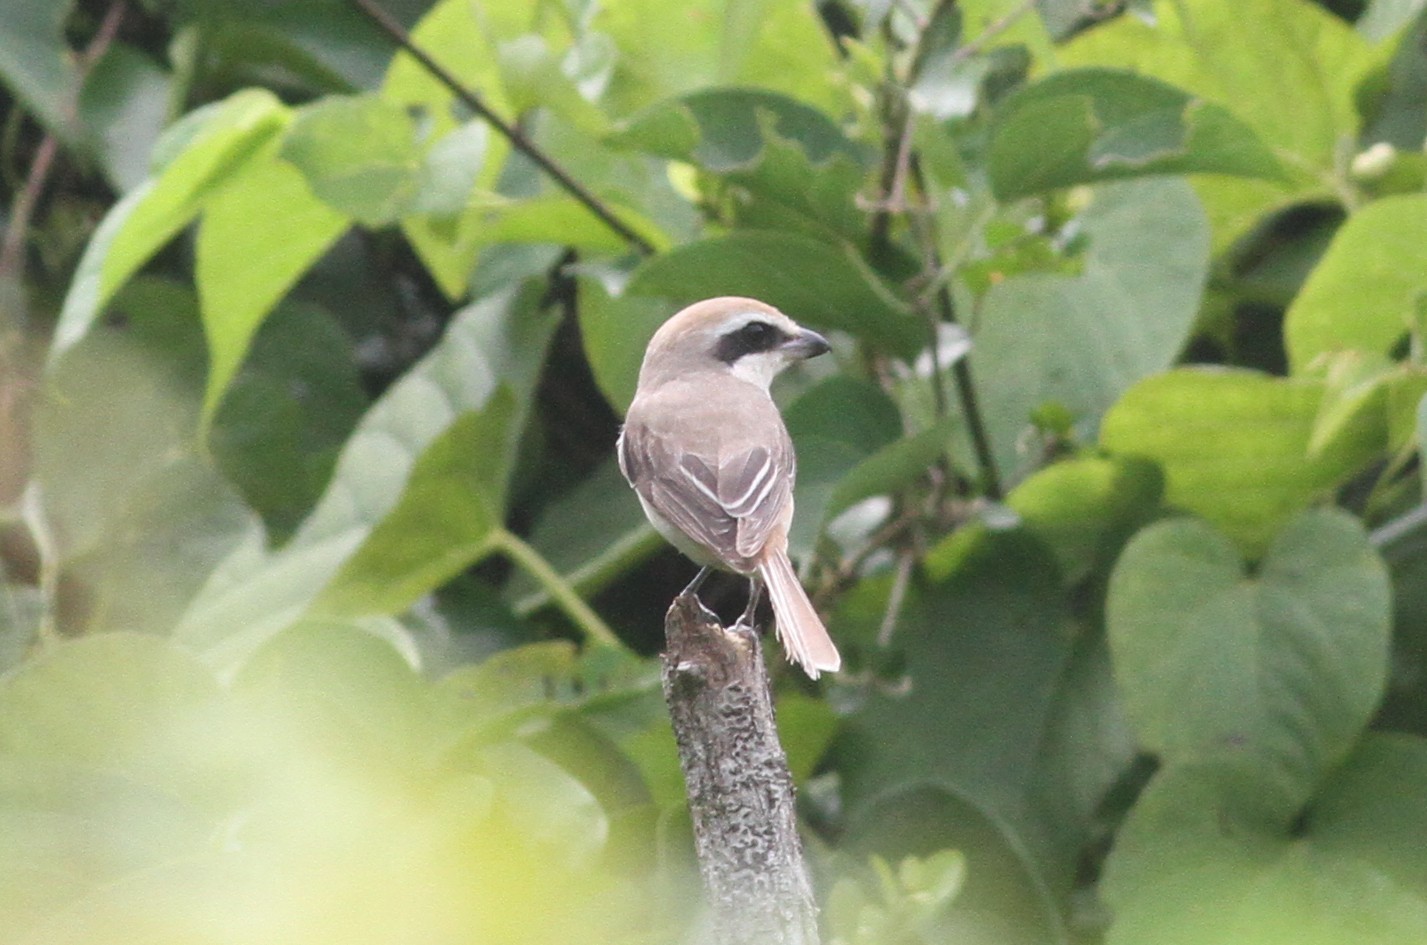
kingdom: Animalia
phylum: Chordata
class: Aves
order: Passeriformes
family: Laniidae
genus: Lanius
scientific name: Lanius cristatus
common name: Brown shrike
